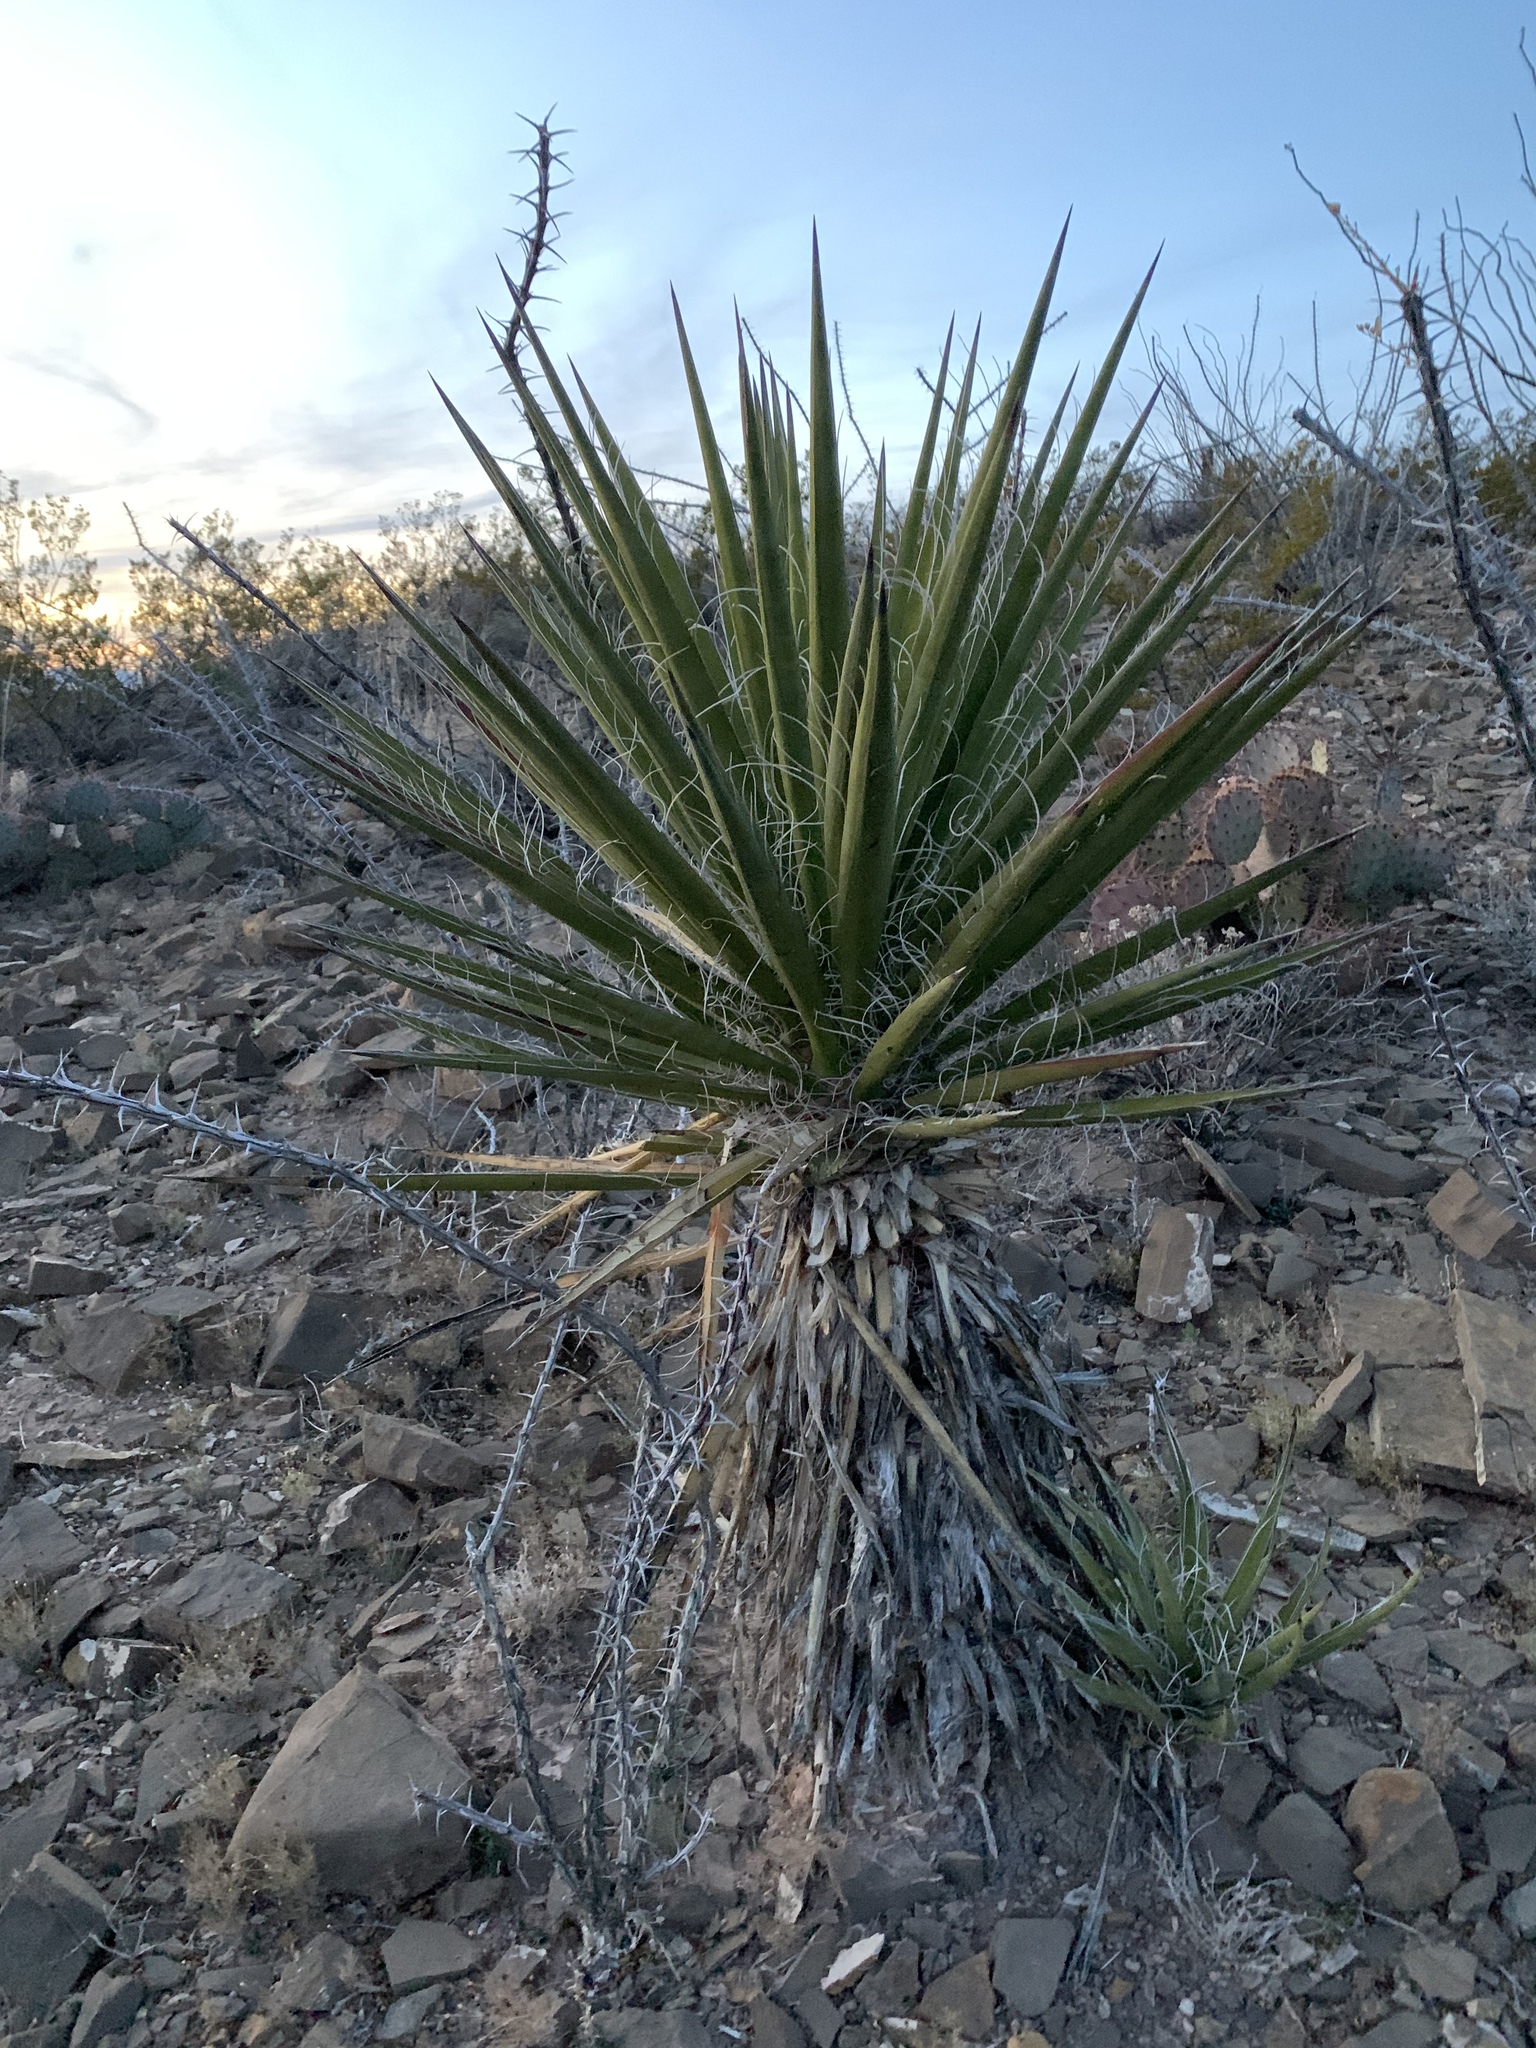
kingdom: Plantae
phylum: Tracheophyta
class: Liliopsida
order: Asparagales
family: Asparagaceae
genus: Yucca
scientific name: Yucca treculiana
